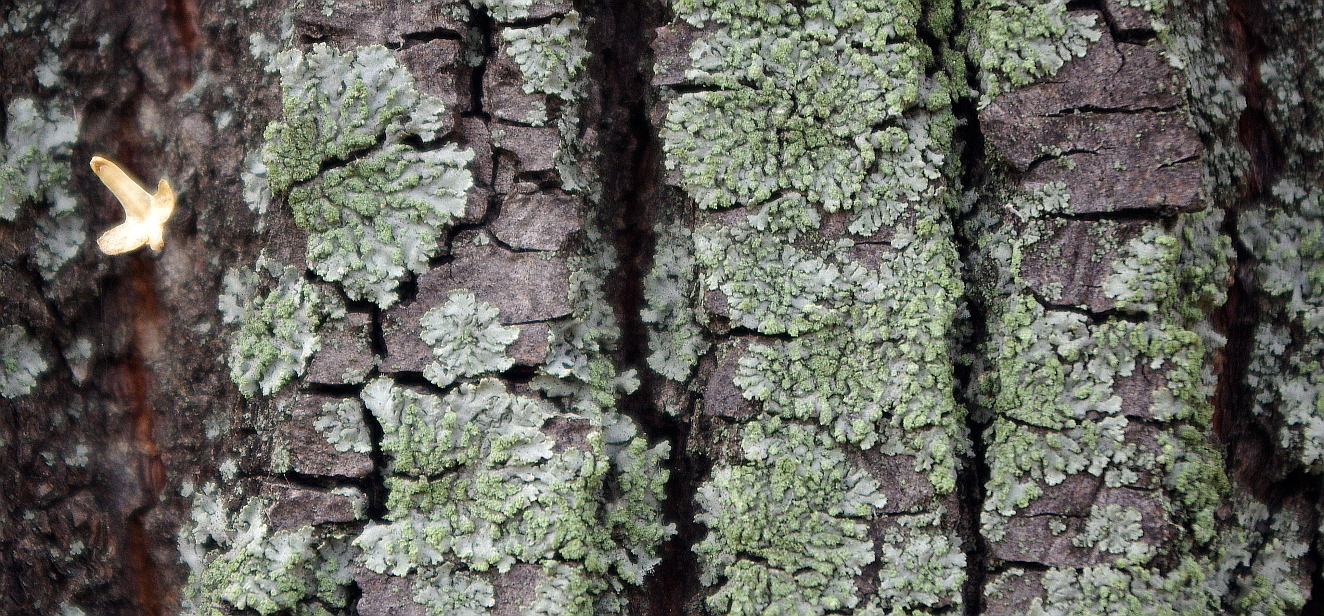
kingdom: Fungi
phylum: Ascomycota
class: Lecanoromycetes
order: Caliciales
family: Physciaceae
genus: Phaeophyscia
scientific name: Phaeophyscia orbicularis
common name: Mealy shadow lichen
